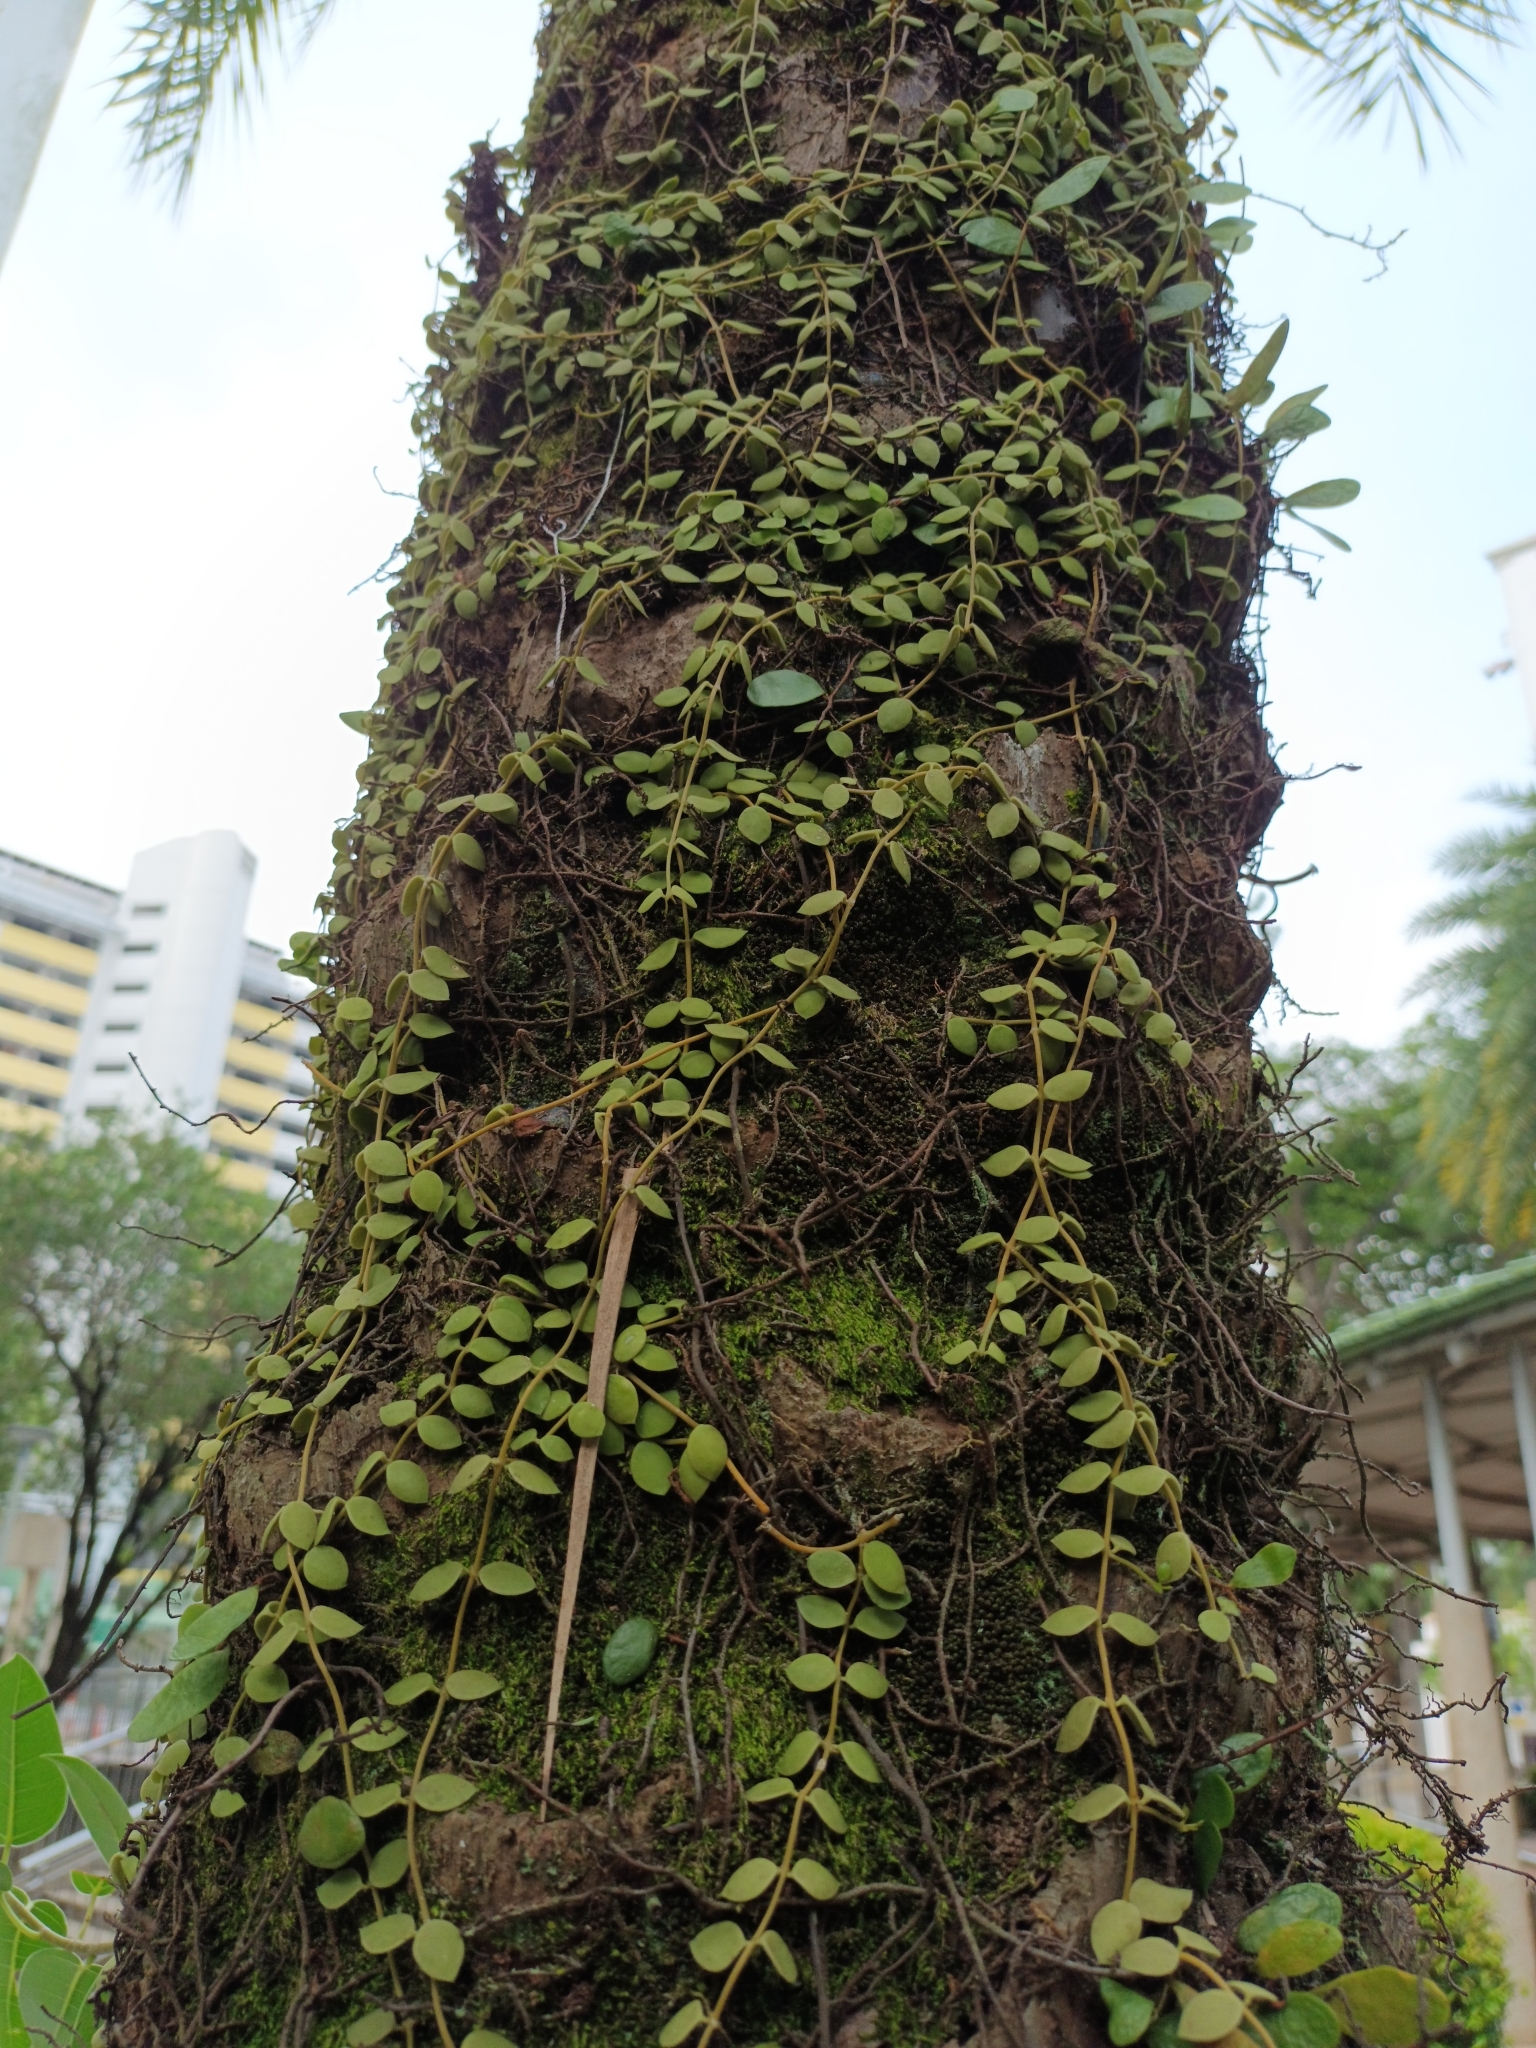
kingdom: Plantae
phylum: Tracheophyta
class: Magnoliopsida
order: Gentianales
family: Apocynaceae
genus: Dischidia
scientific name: Dischidia nummularia
